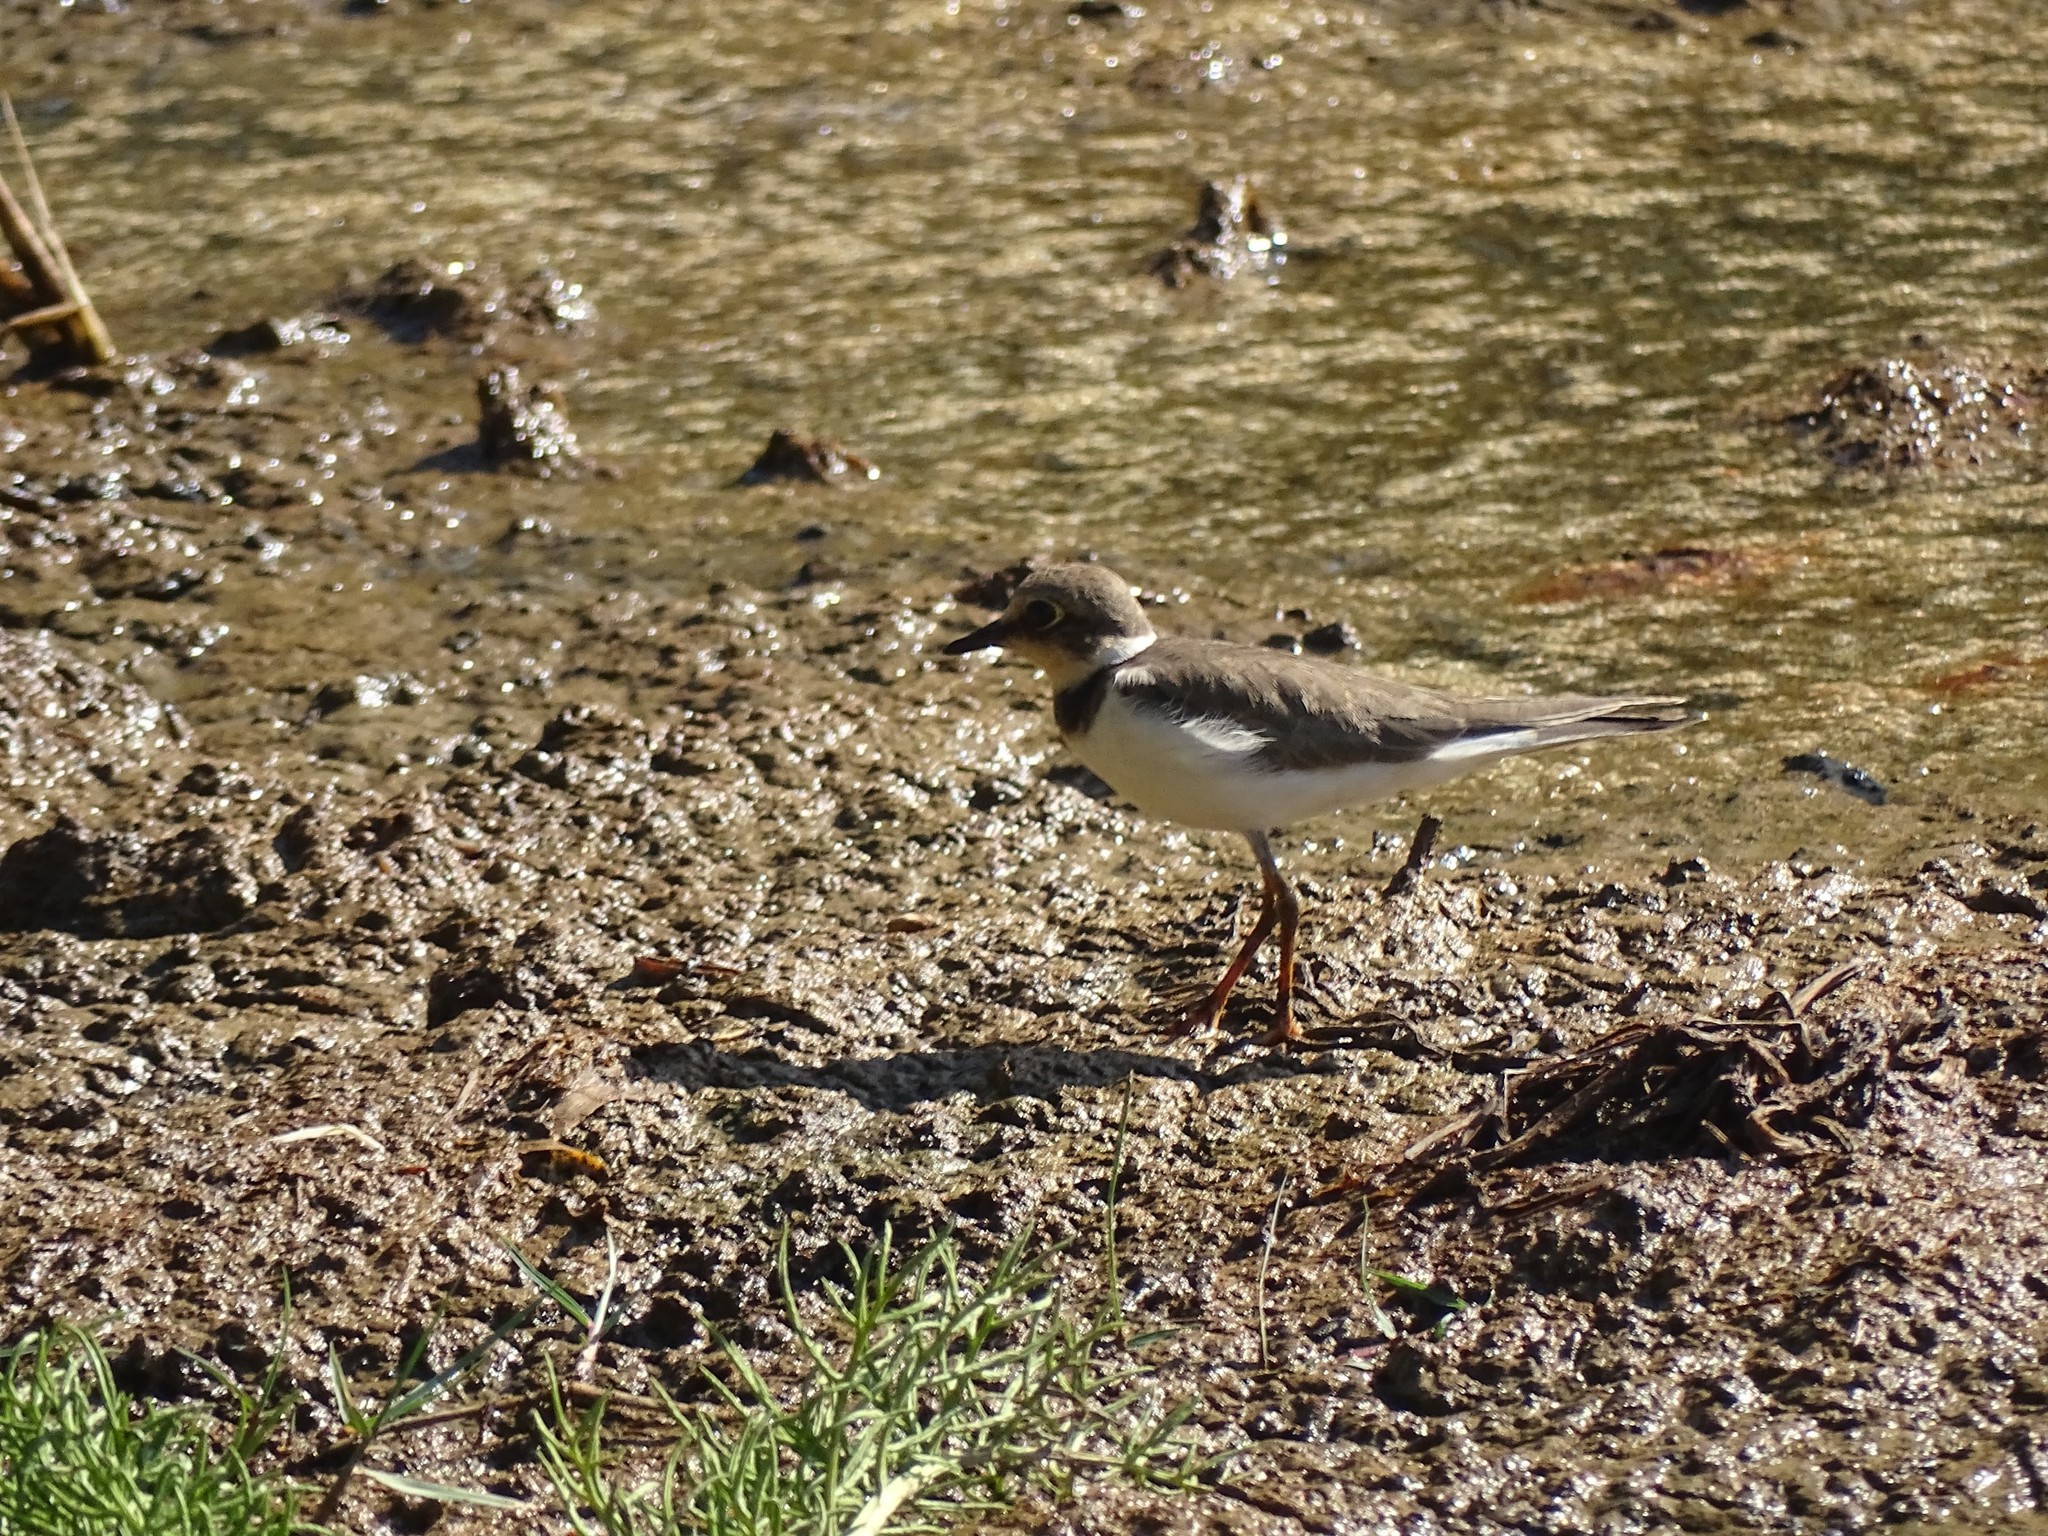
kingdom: Animalia
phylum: Chordata
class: Aves
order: Charadriiformes
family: Charadriidae
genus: Charadrius
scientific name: Charadrius dubius
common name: Little ringed plover
